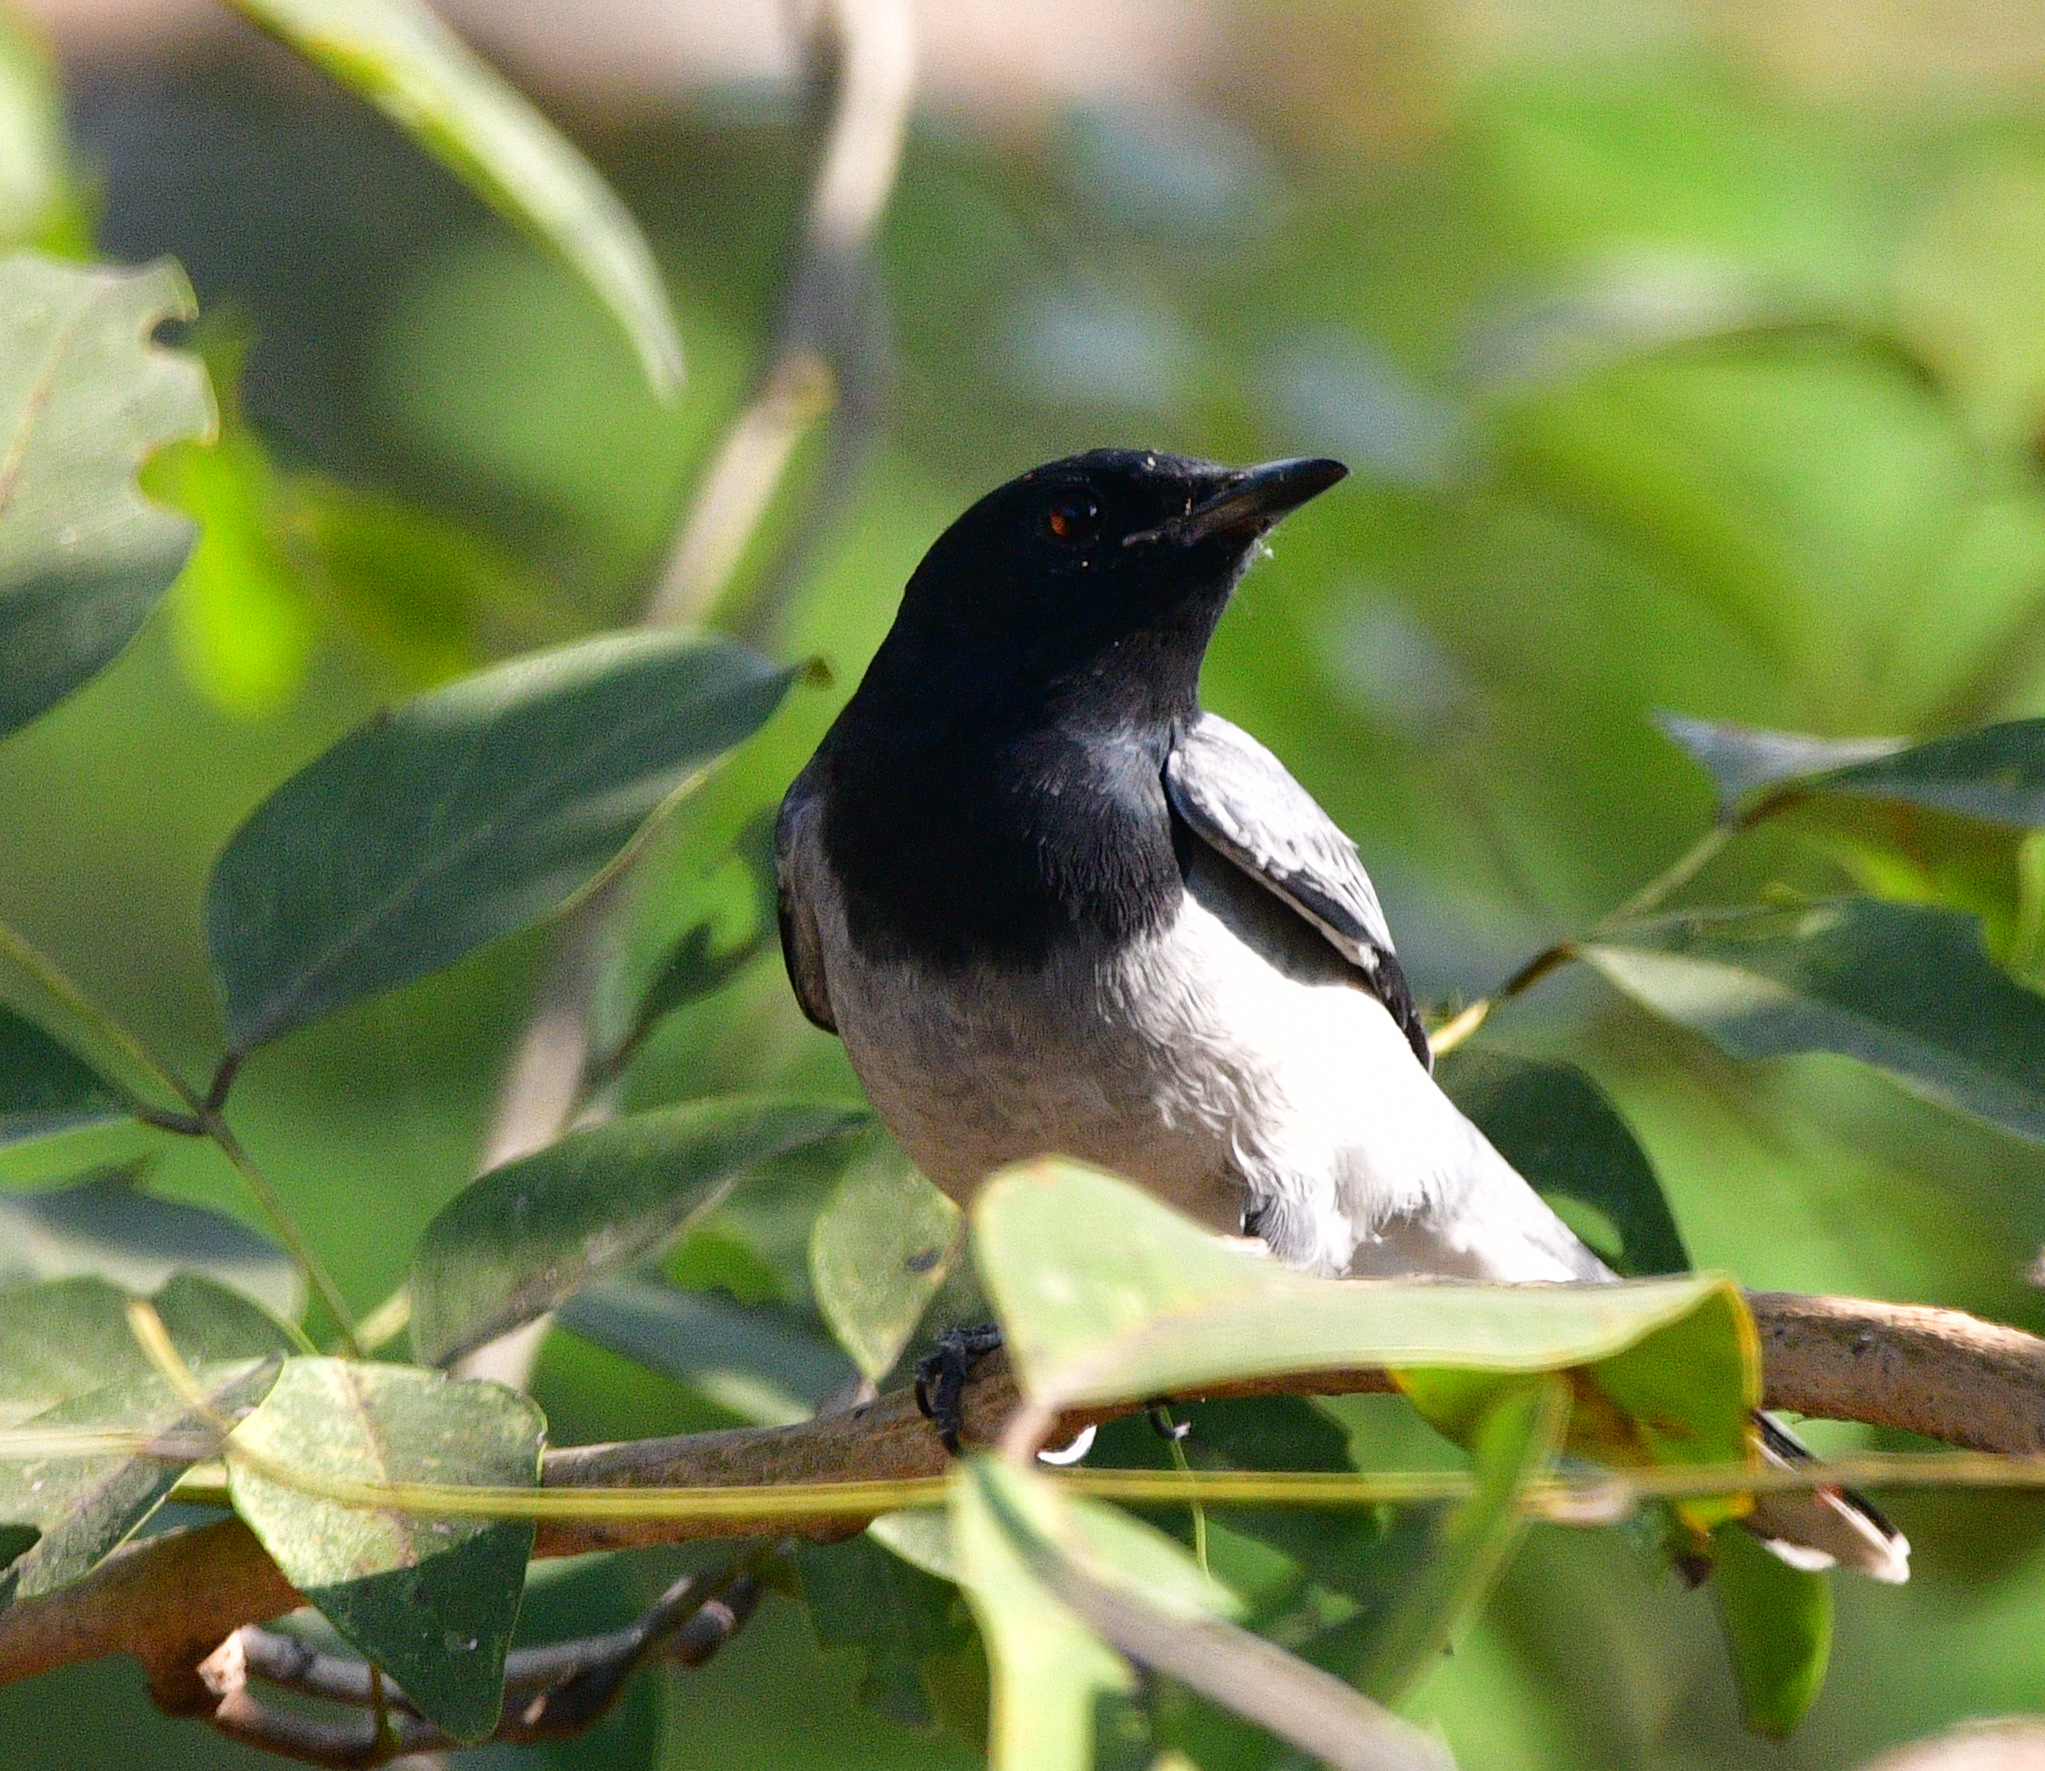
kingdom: Animalia
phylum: Chordata
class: Aves
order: Passeriformes
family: Campephagidae
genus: Coracina
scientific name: Coracina melanoptera
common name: Black-headed cuckooshrike
